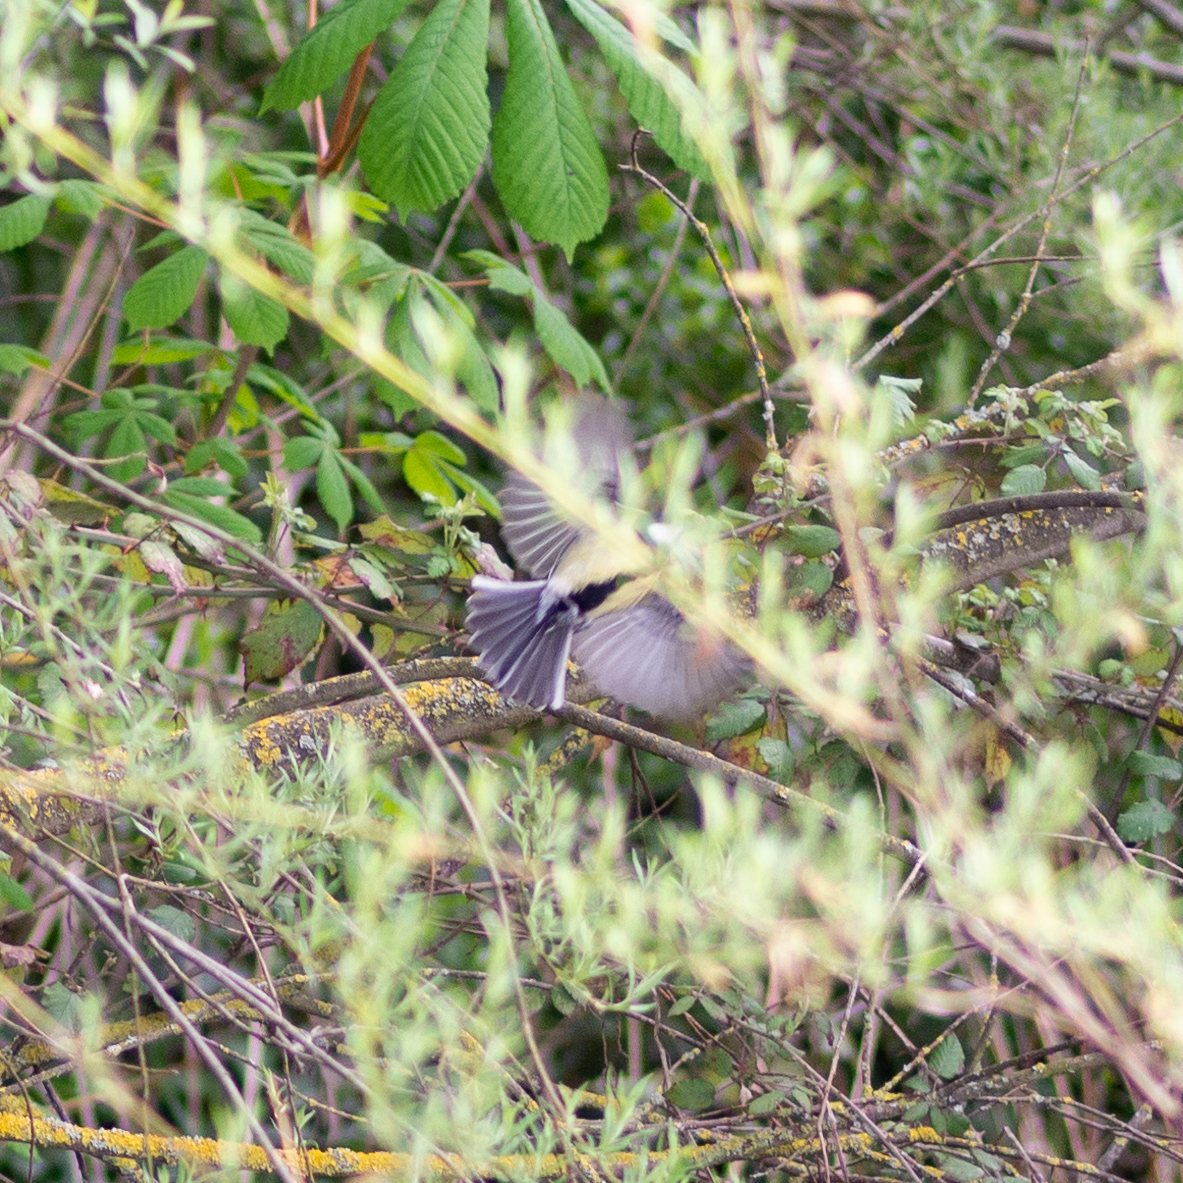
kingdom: Animalia
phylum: Chordata
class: Aves
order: Passeriformes
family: Paridae
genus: Parus
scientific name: Parus major
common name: Great tit
